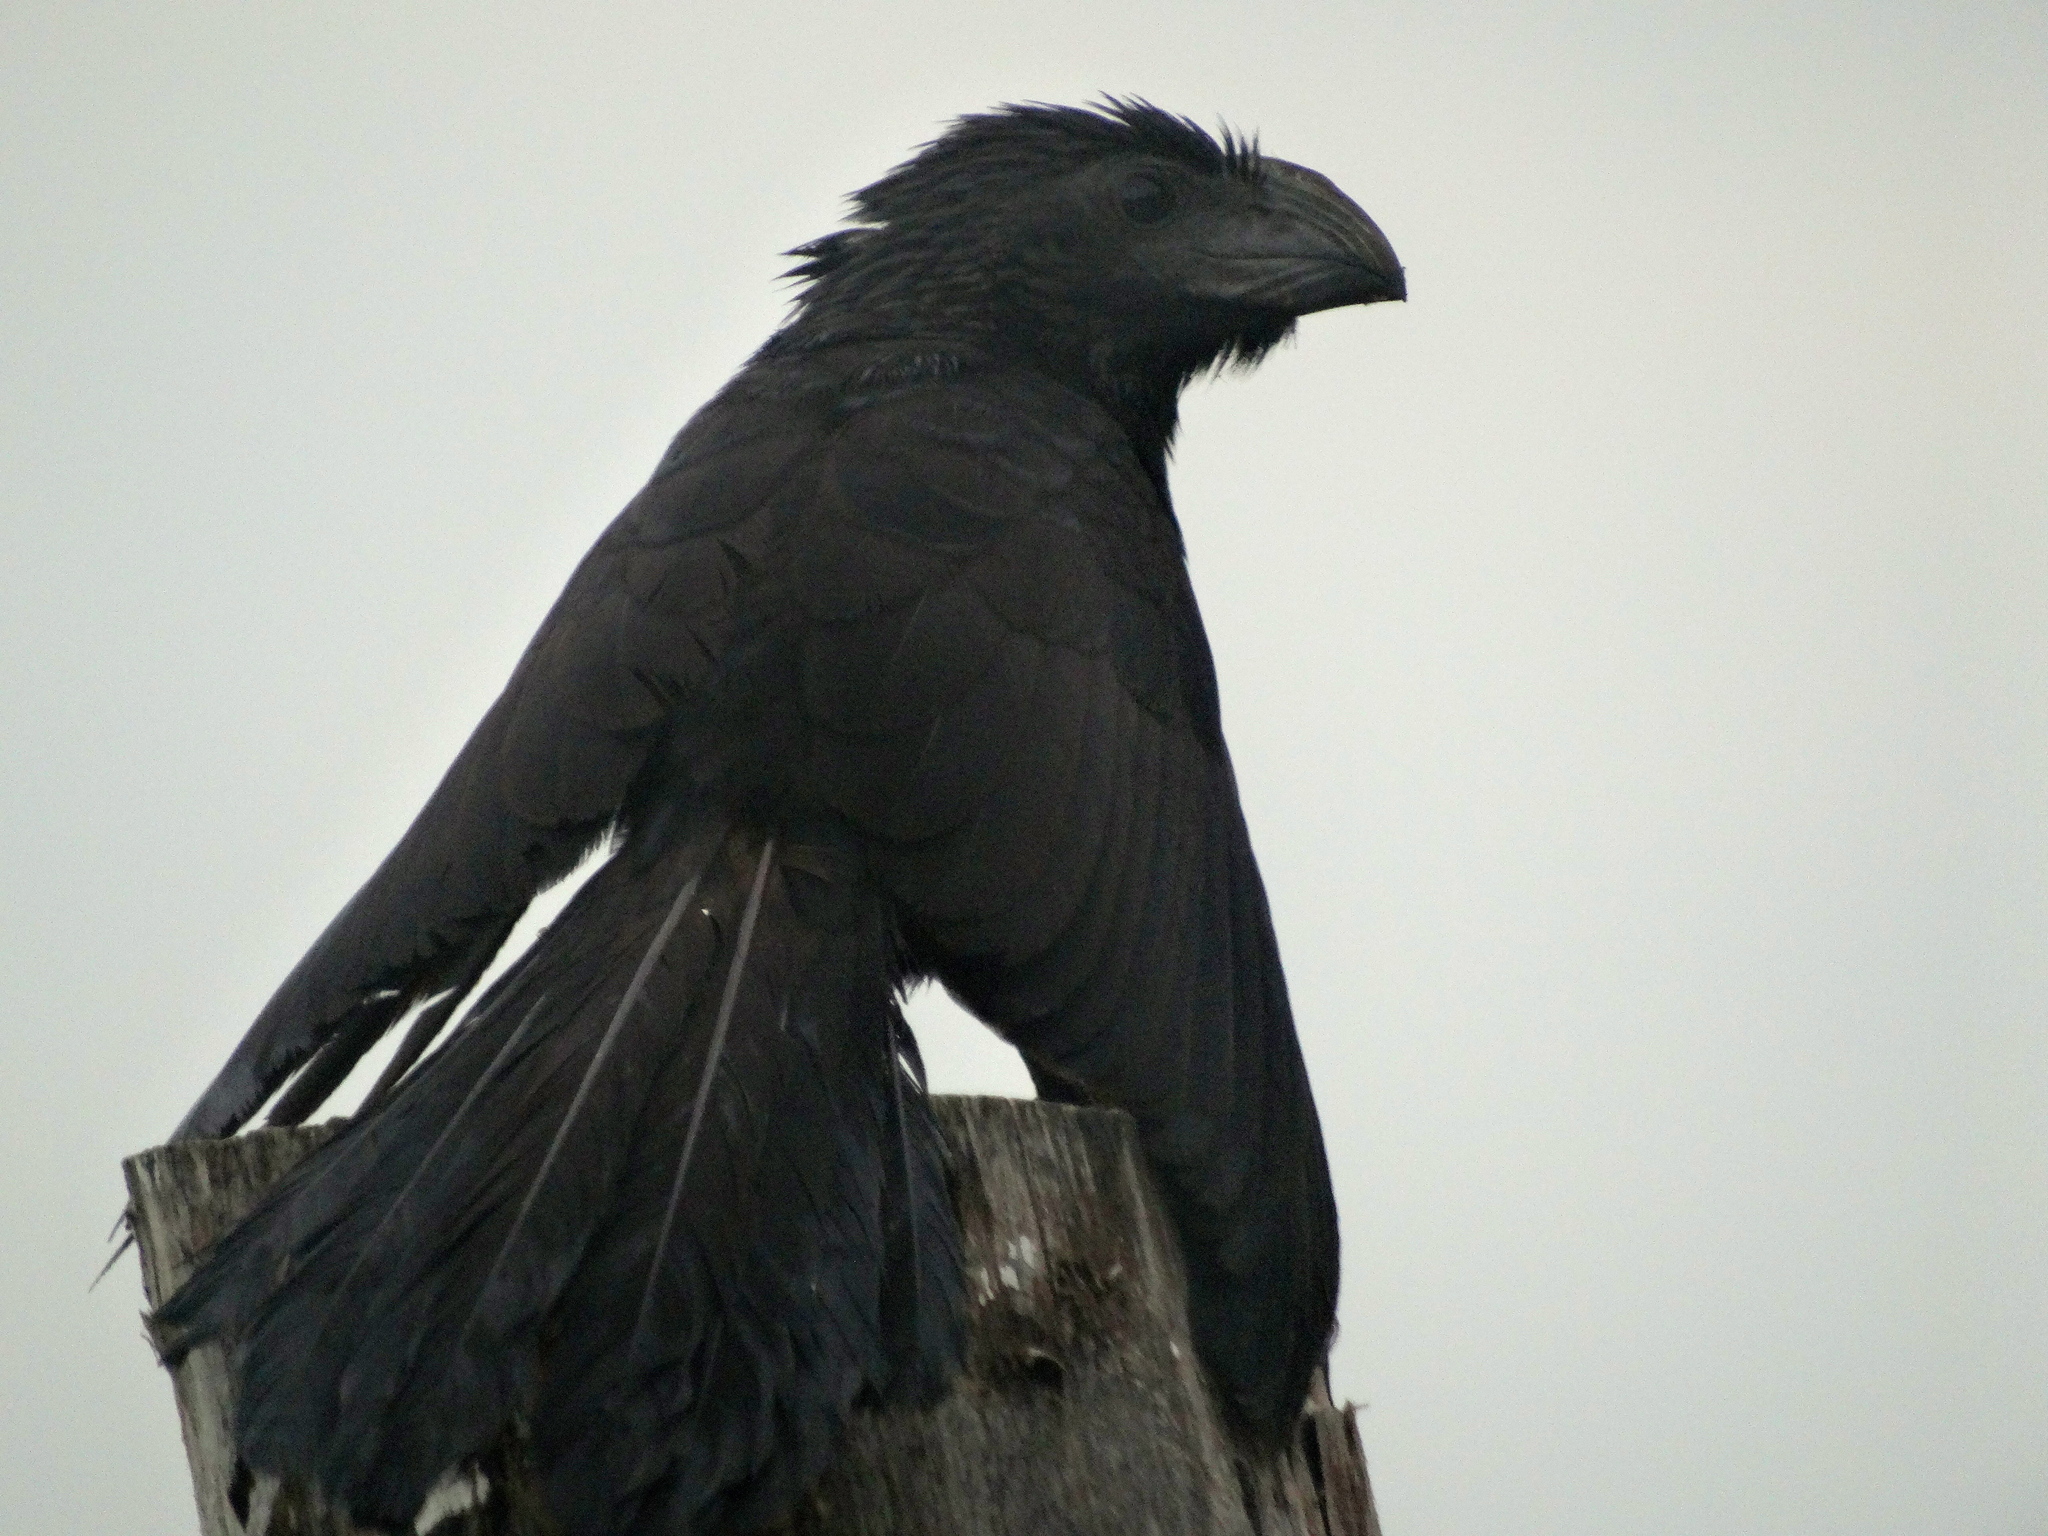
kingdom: Animalia
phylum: Chordata
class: Aves
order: Cuculiformes
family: Cuculidae
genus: Crotophaga
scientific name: Crotophaga sulcirostris
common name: Groove-billed ani
